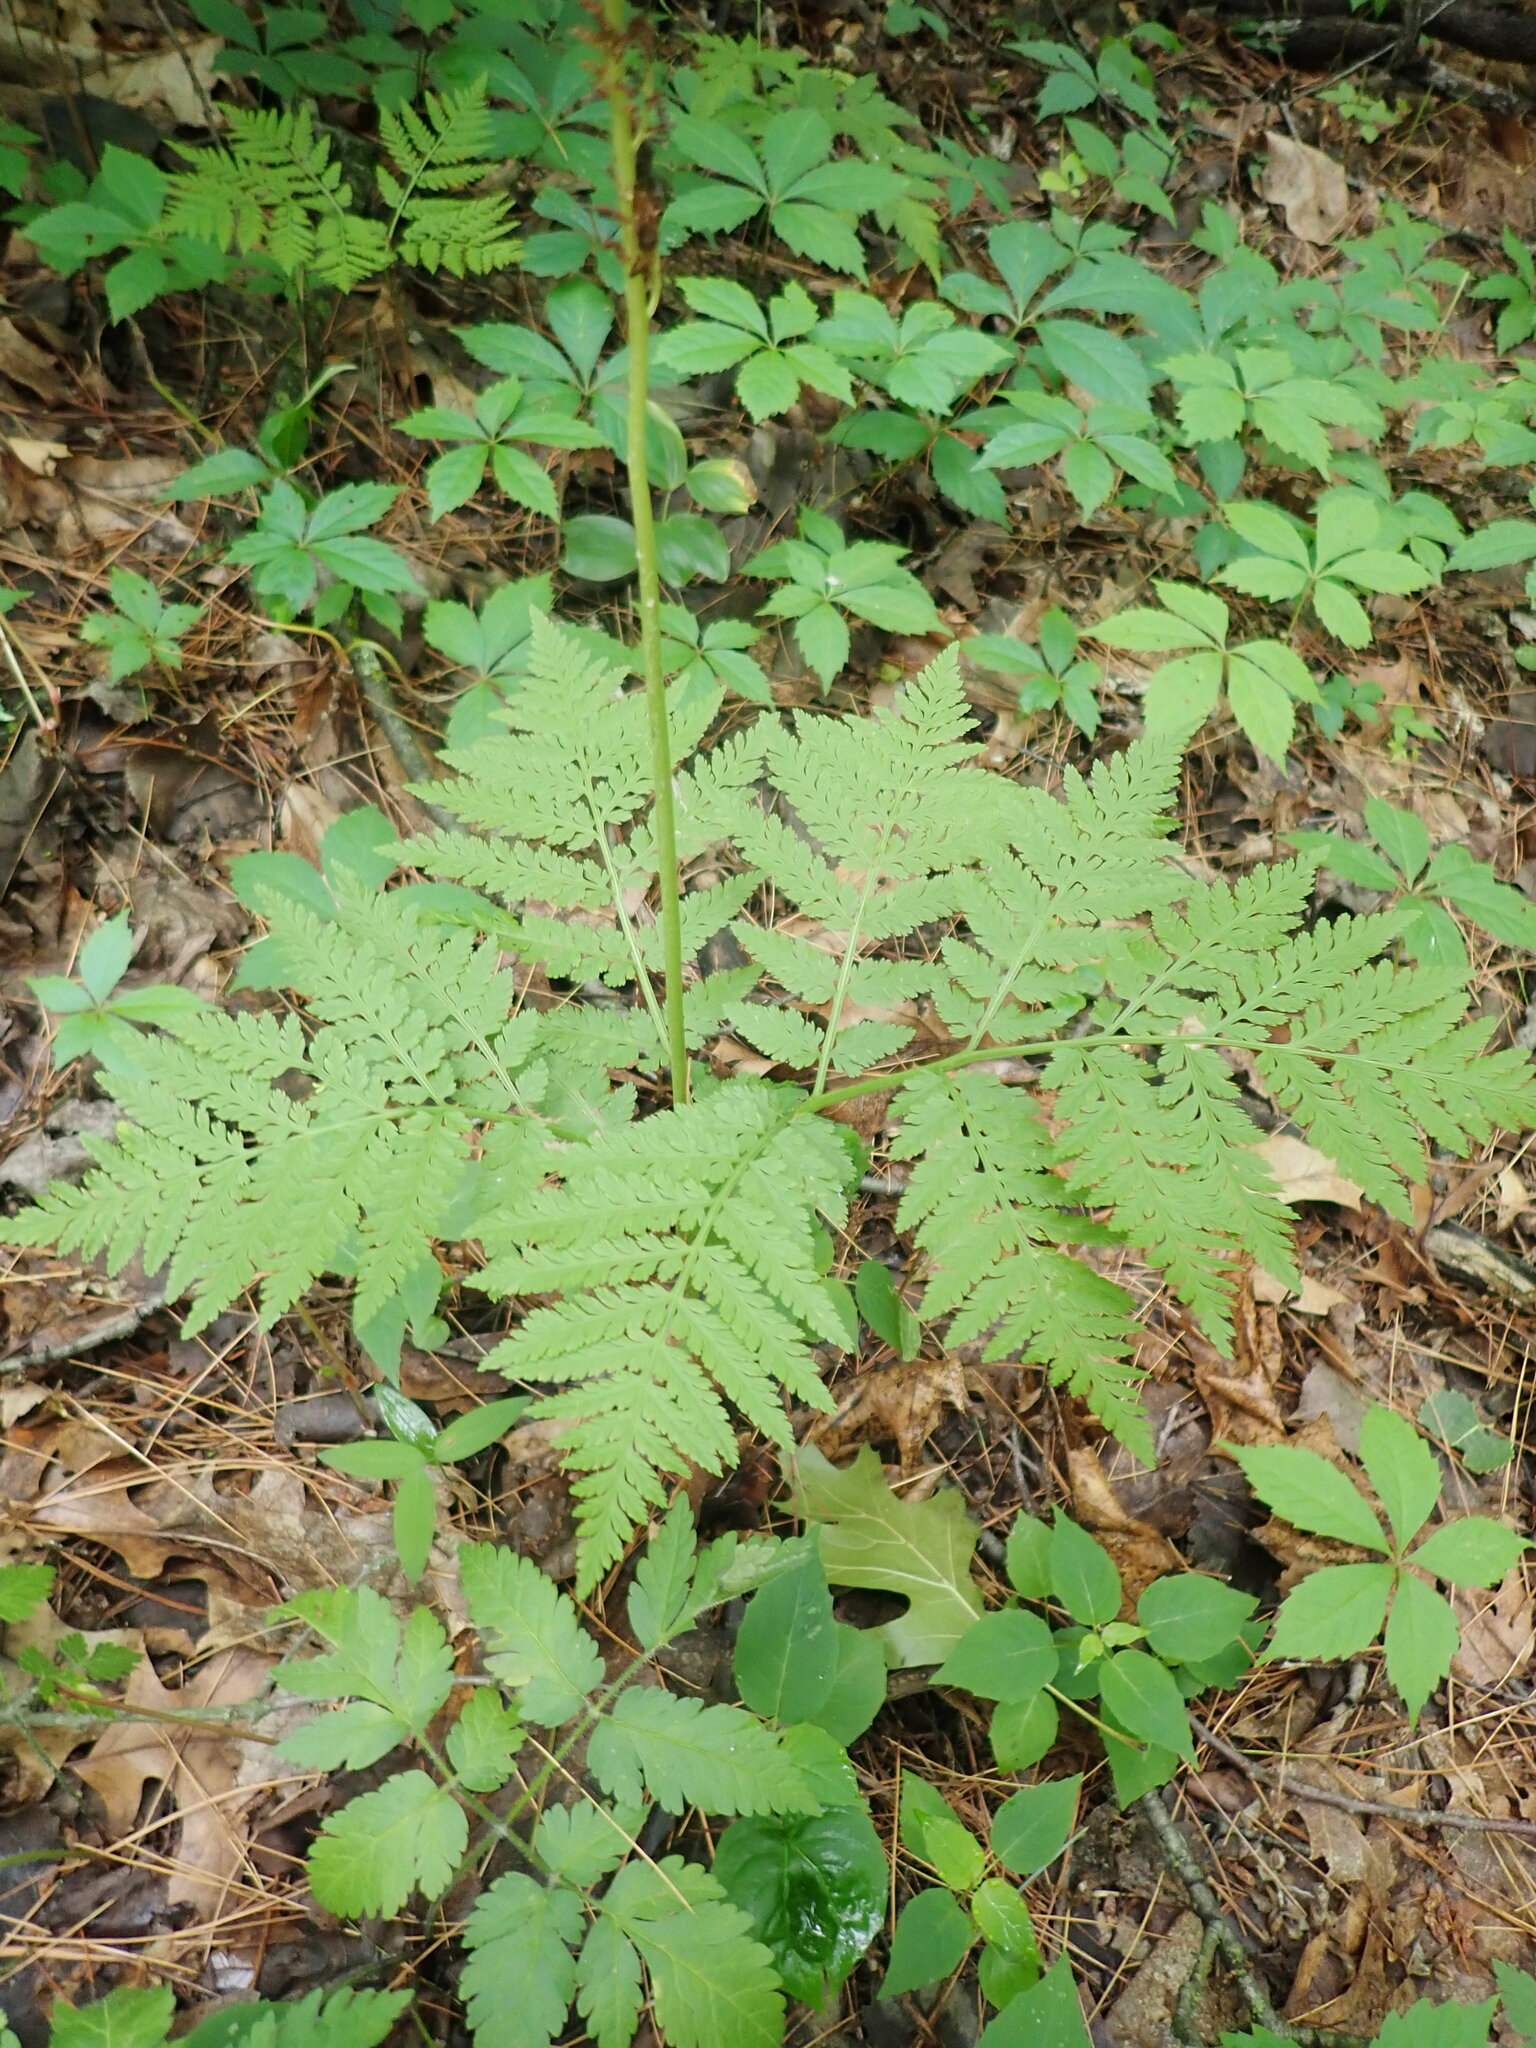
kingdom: Plantae
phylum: Tracheophyta
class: Polypodiopsida
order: Ophioglossales
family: Ophioglossaceae
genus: Botrypus
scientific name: Botrypus virginianus
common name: Common grapefern
